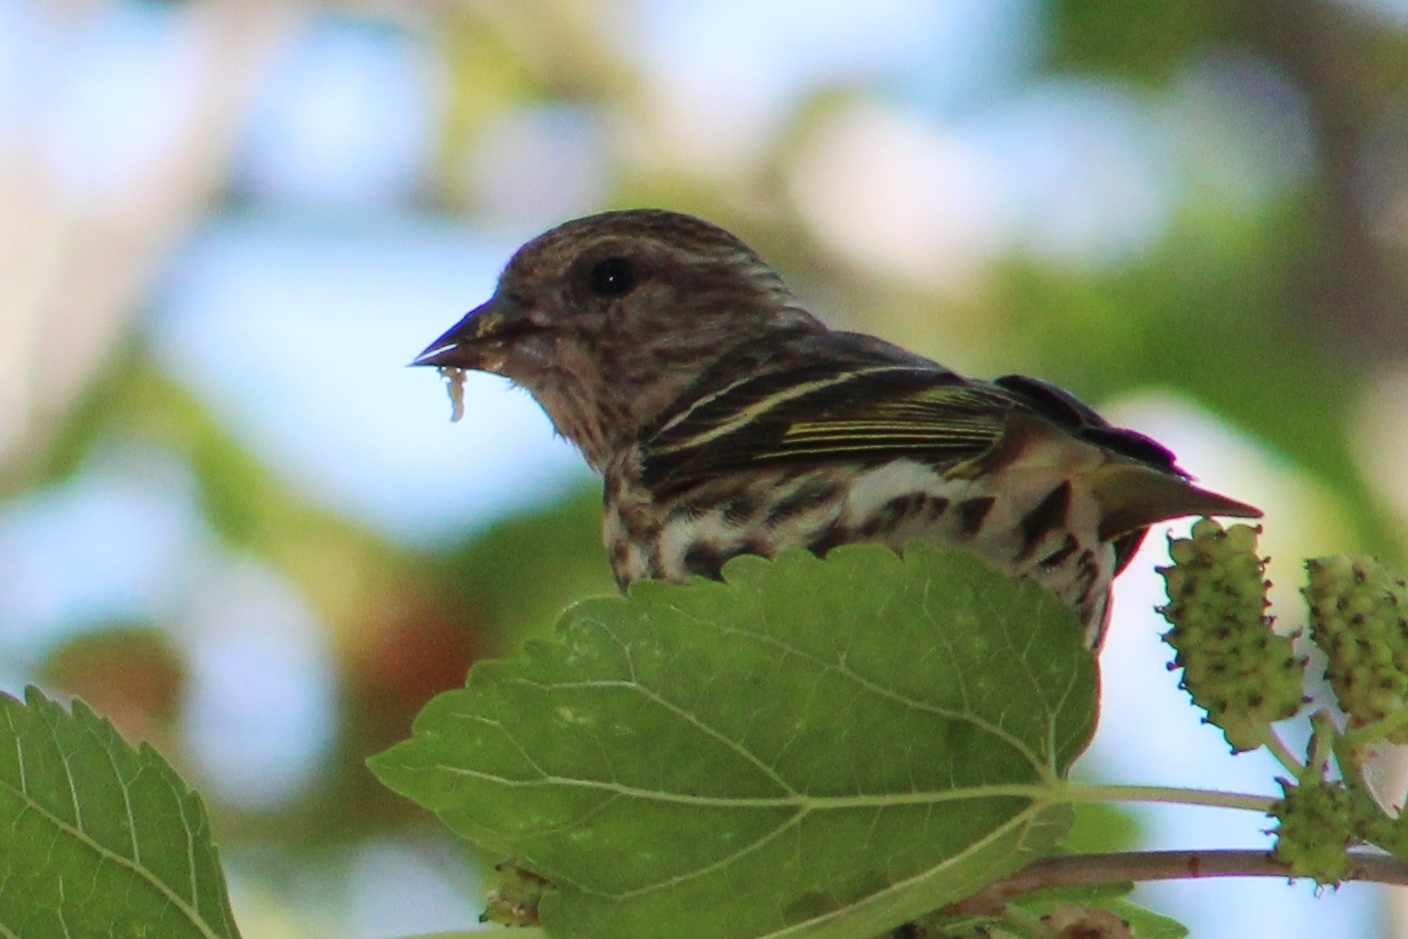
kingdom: Animalia
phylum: Chordata
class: Aves
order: Passeriformes
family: Fringillidae
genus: Spinus
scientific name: Spinus pinus
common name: Pine siskin
